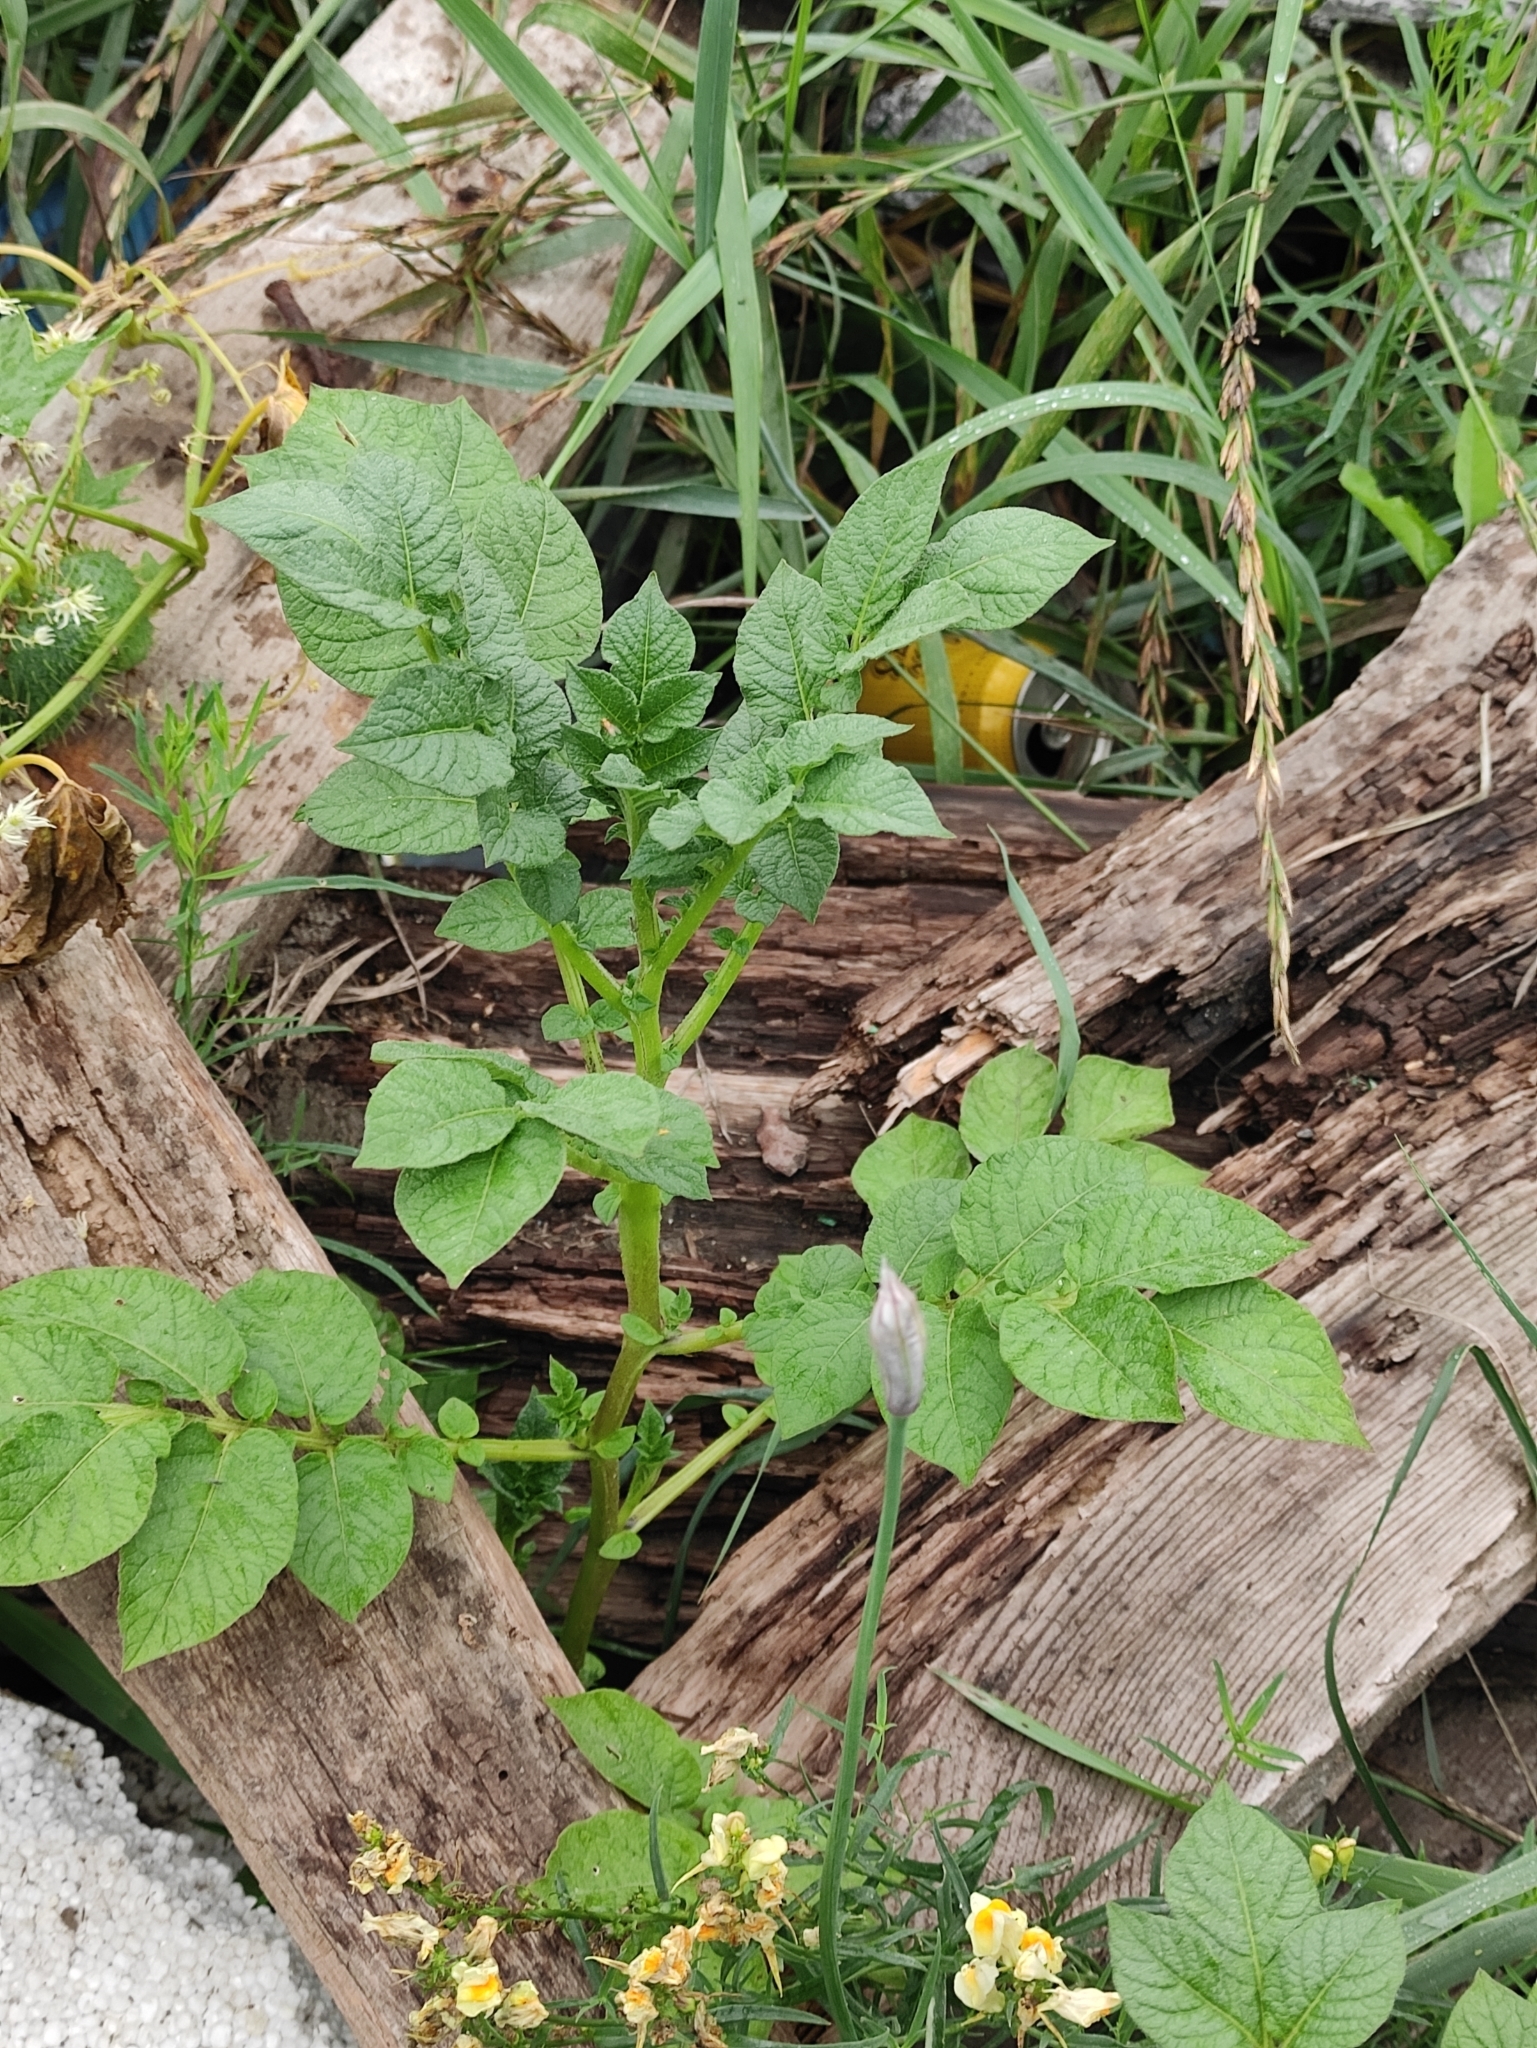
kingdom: Plantae
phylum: Tracheophyta
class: Magnoliopsida
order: Solanales
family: Solanaceae
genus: Solanum
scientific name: Solanum tuberosum
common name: Potato
